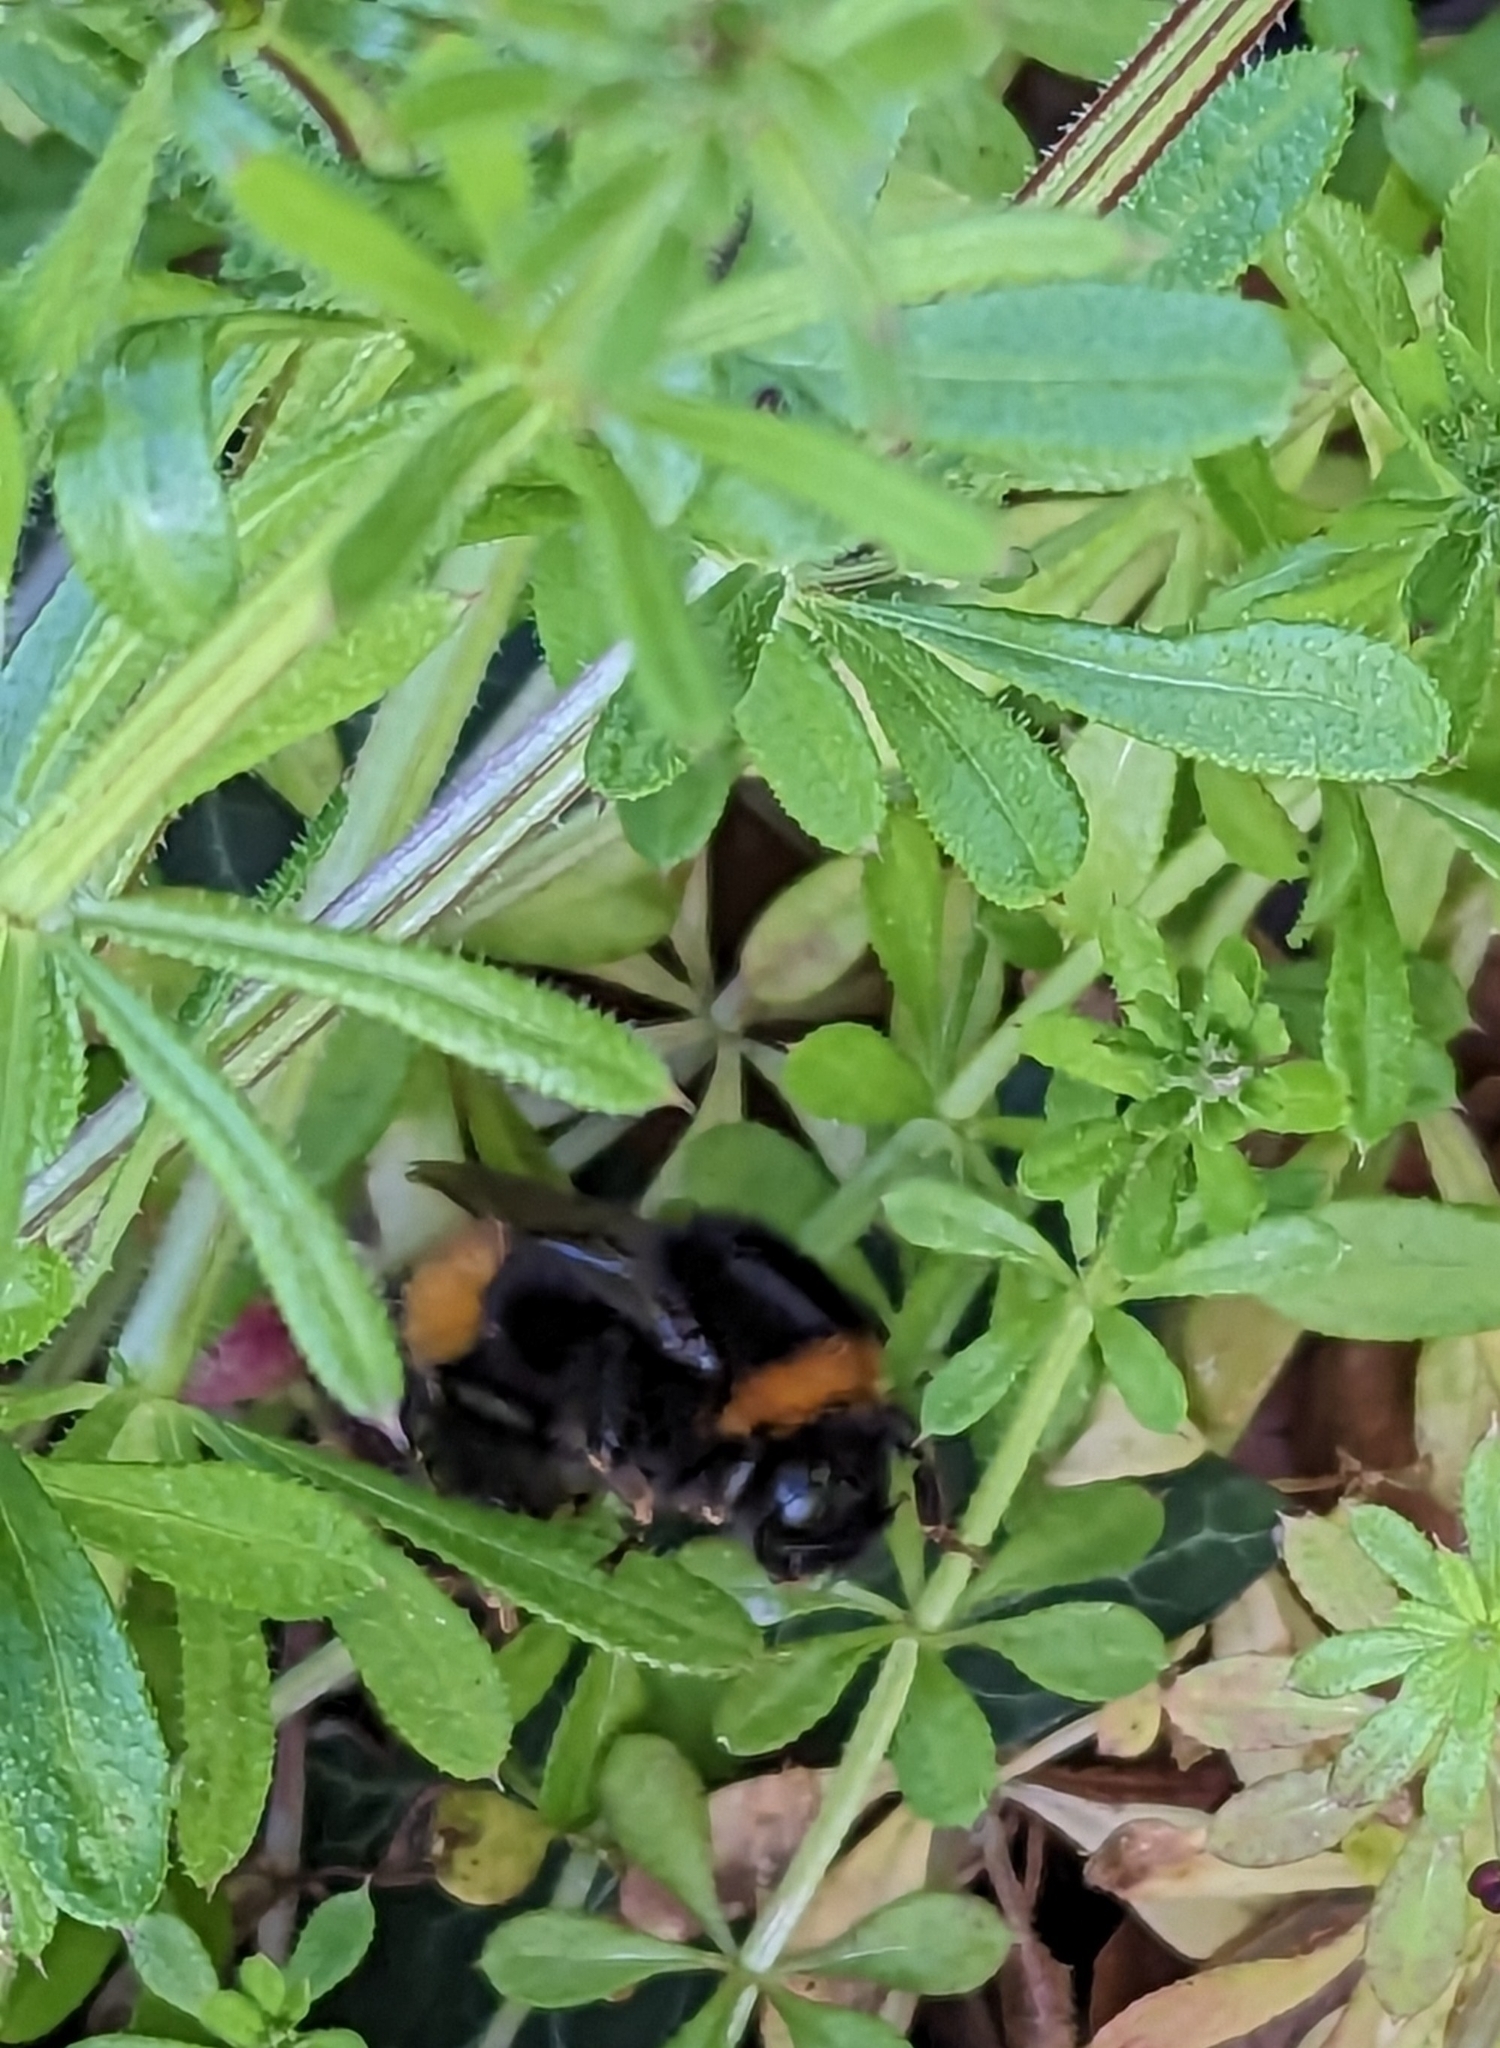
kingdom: Animalia
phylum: Arthropoda
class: Insecta
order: Hymenoptera
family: Apidae
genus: Bombus
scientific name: Bombus terrestris
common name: Buff-tailed bumblebee
